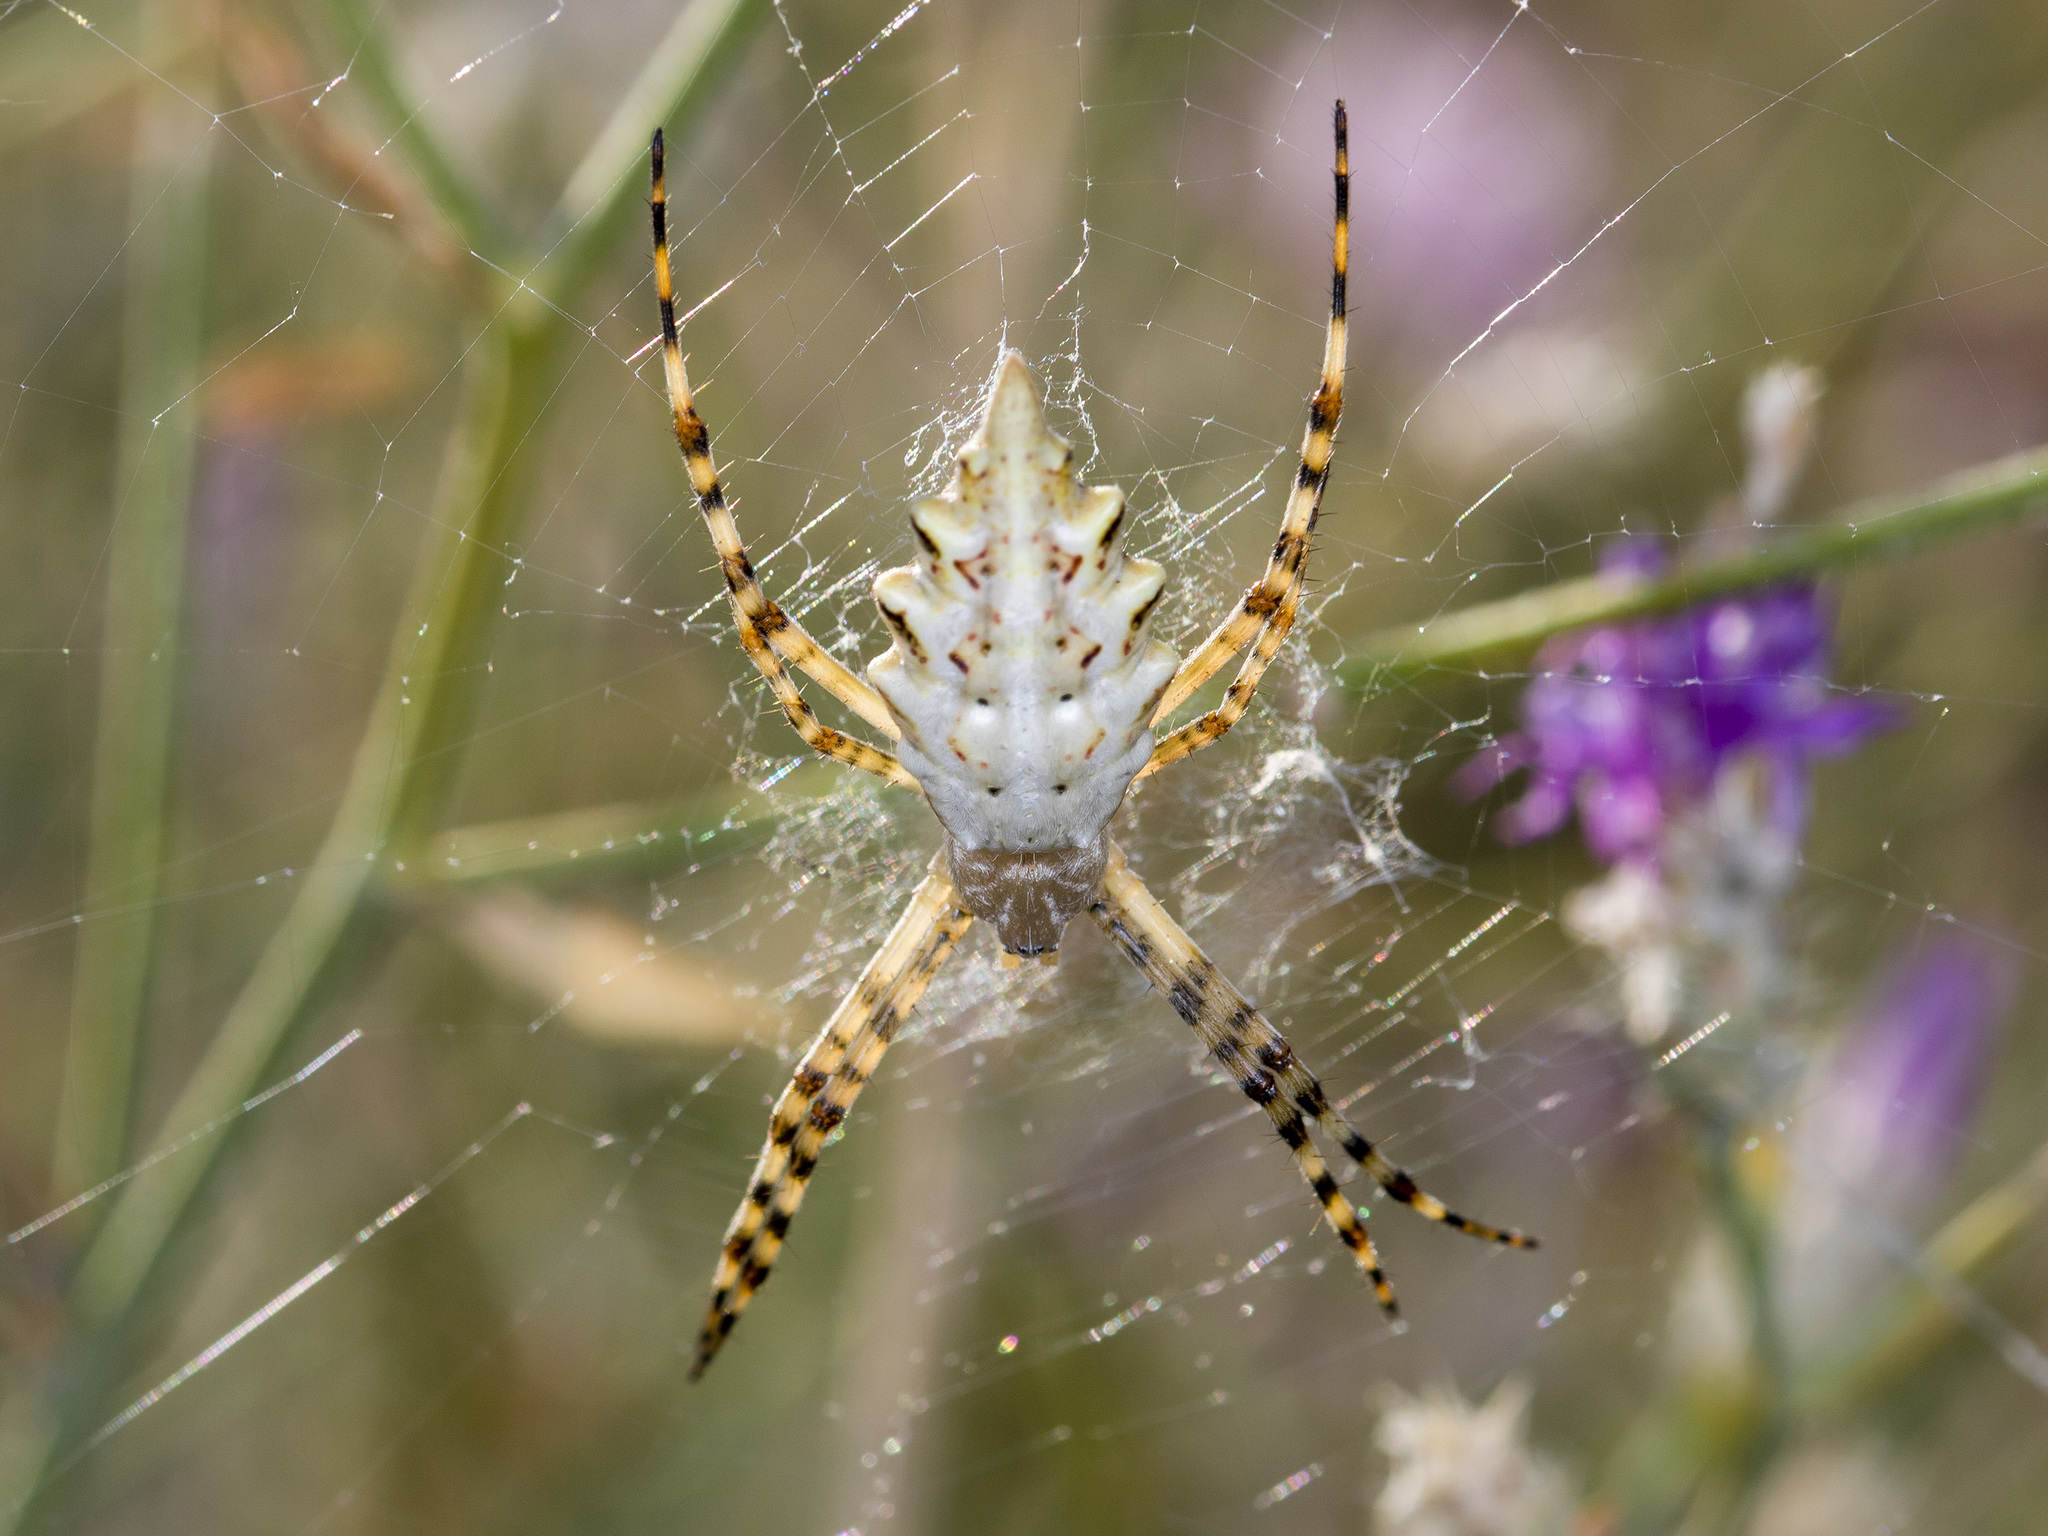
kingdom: Animalia
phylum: Arthropoda
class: Arachnida
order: Araneae
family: Araneidae
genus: Argiope
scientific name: Argiope lobata
